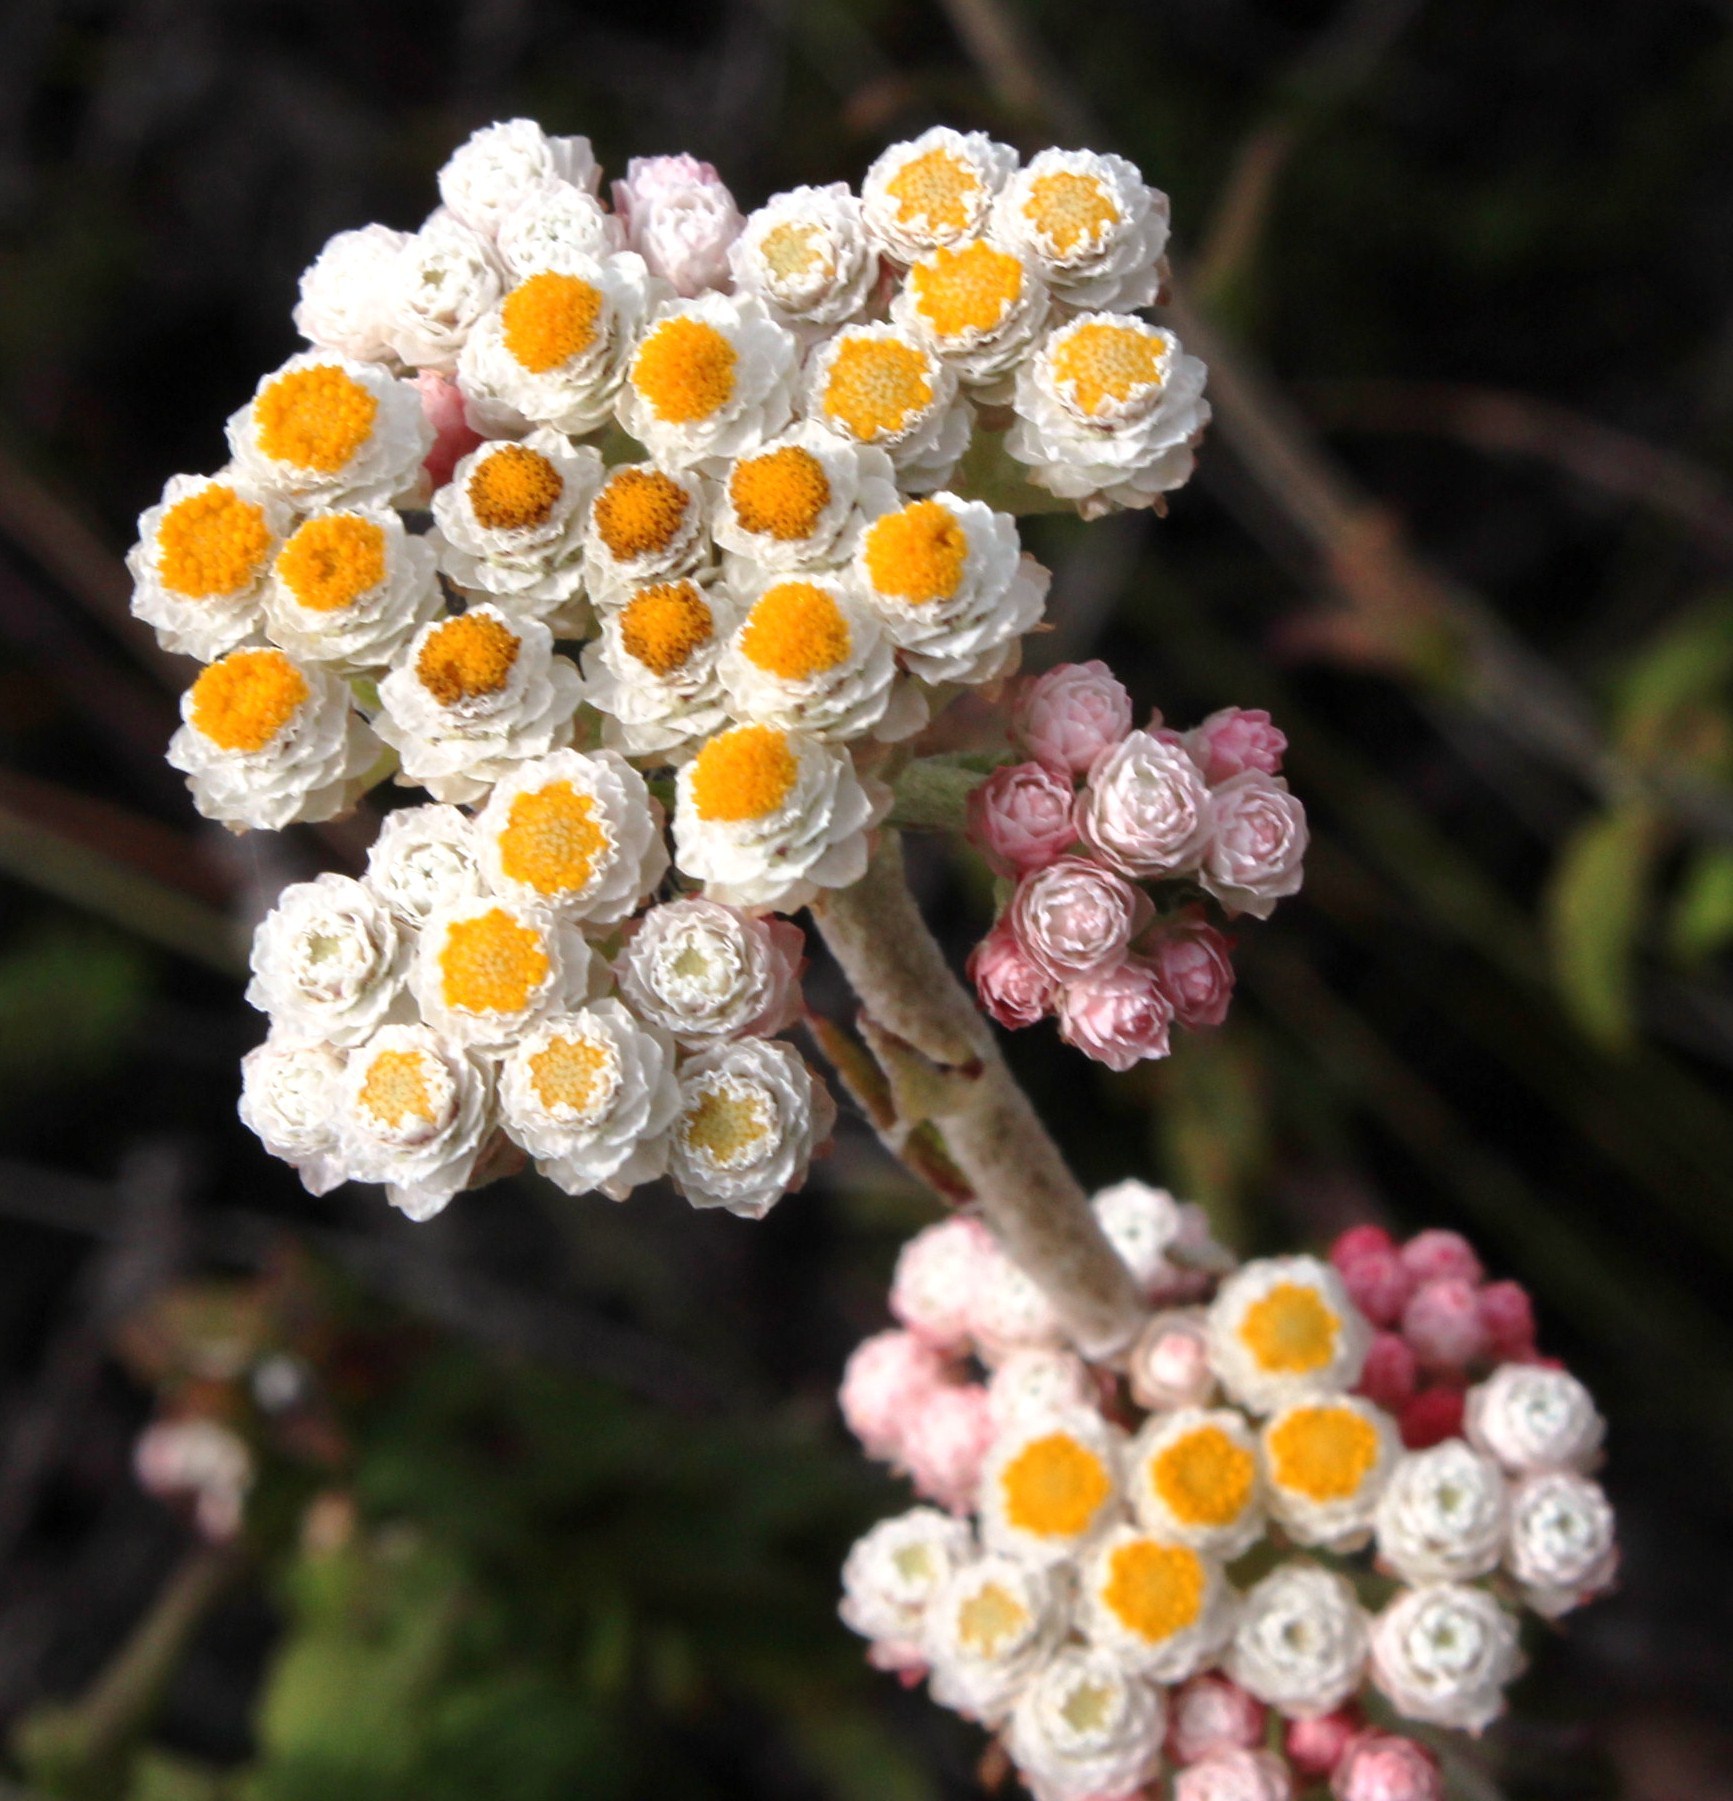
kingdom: Plantae
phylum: Tracheophyta
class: Magnoliopsida
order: Asterales
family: Asteraceae
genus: Helichrysum
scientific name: Helichrysum felinum
